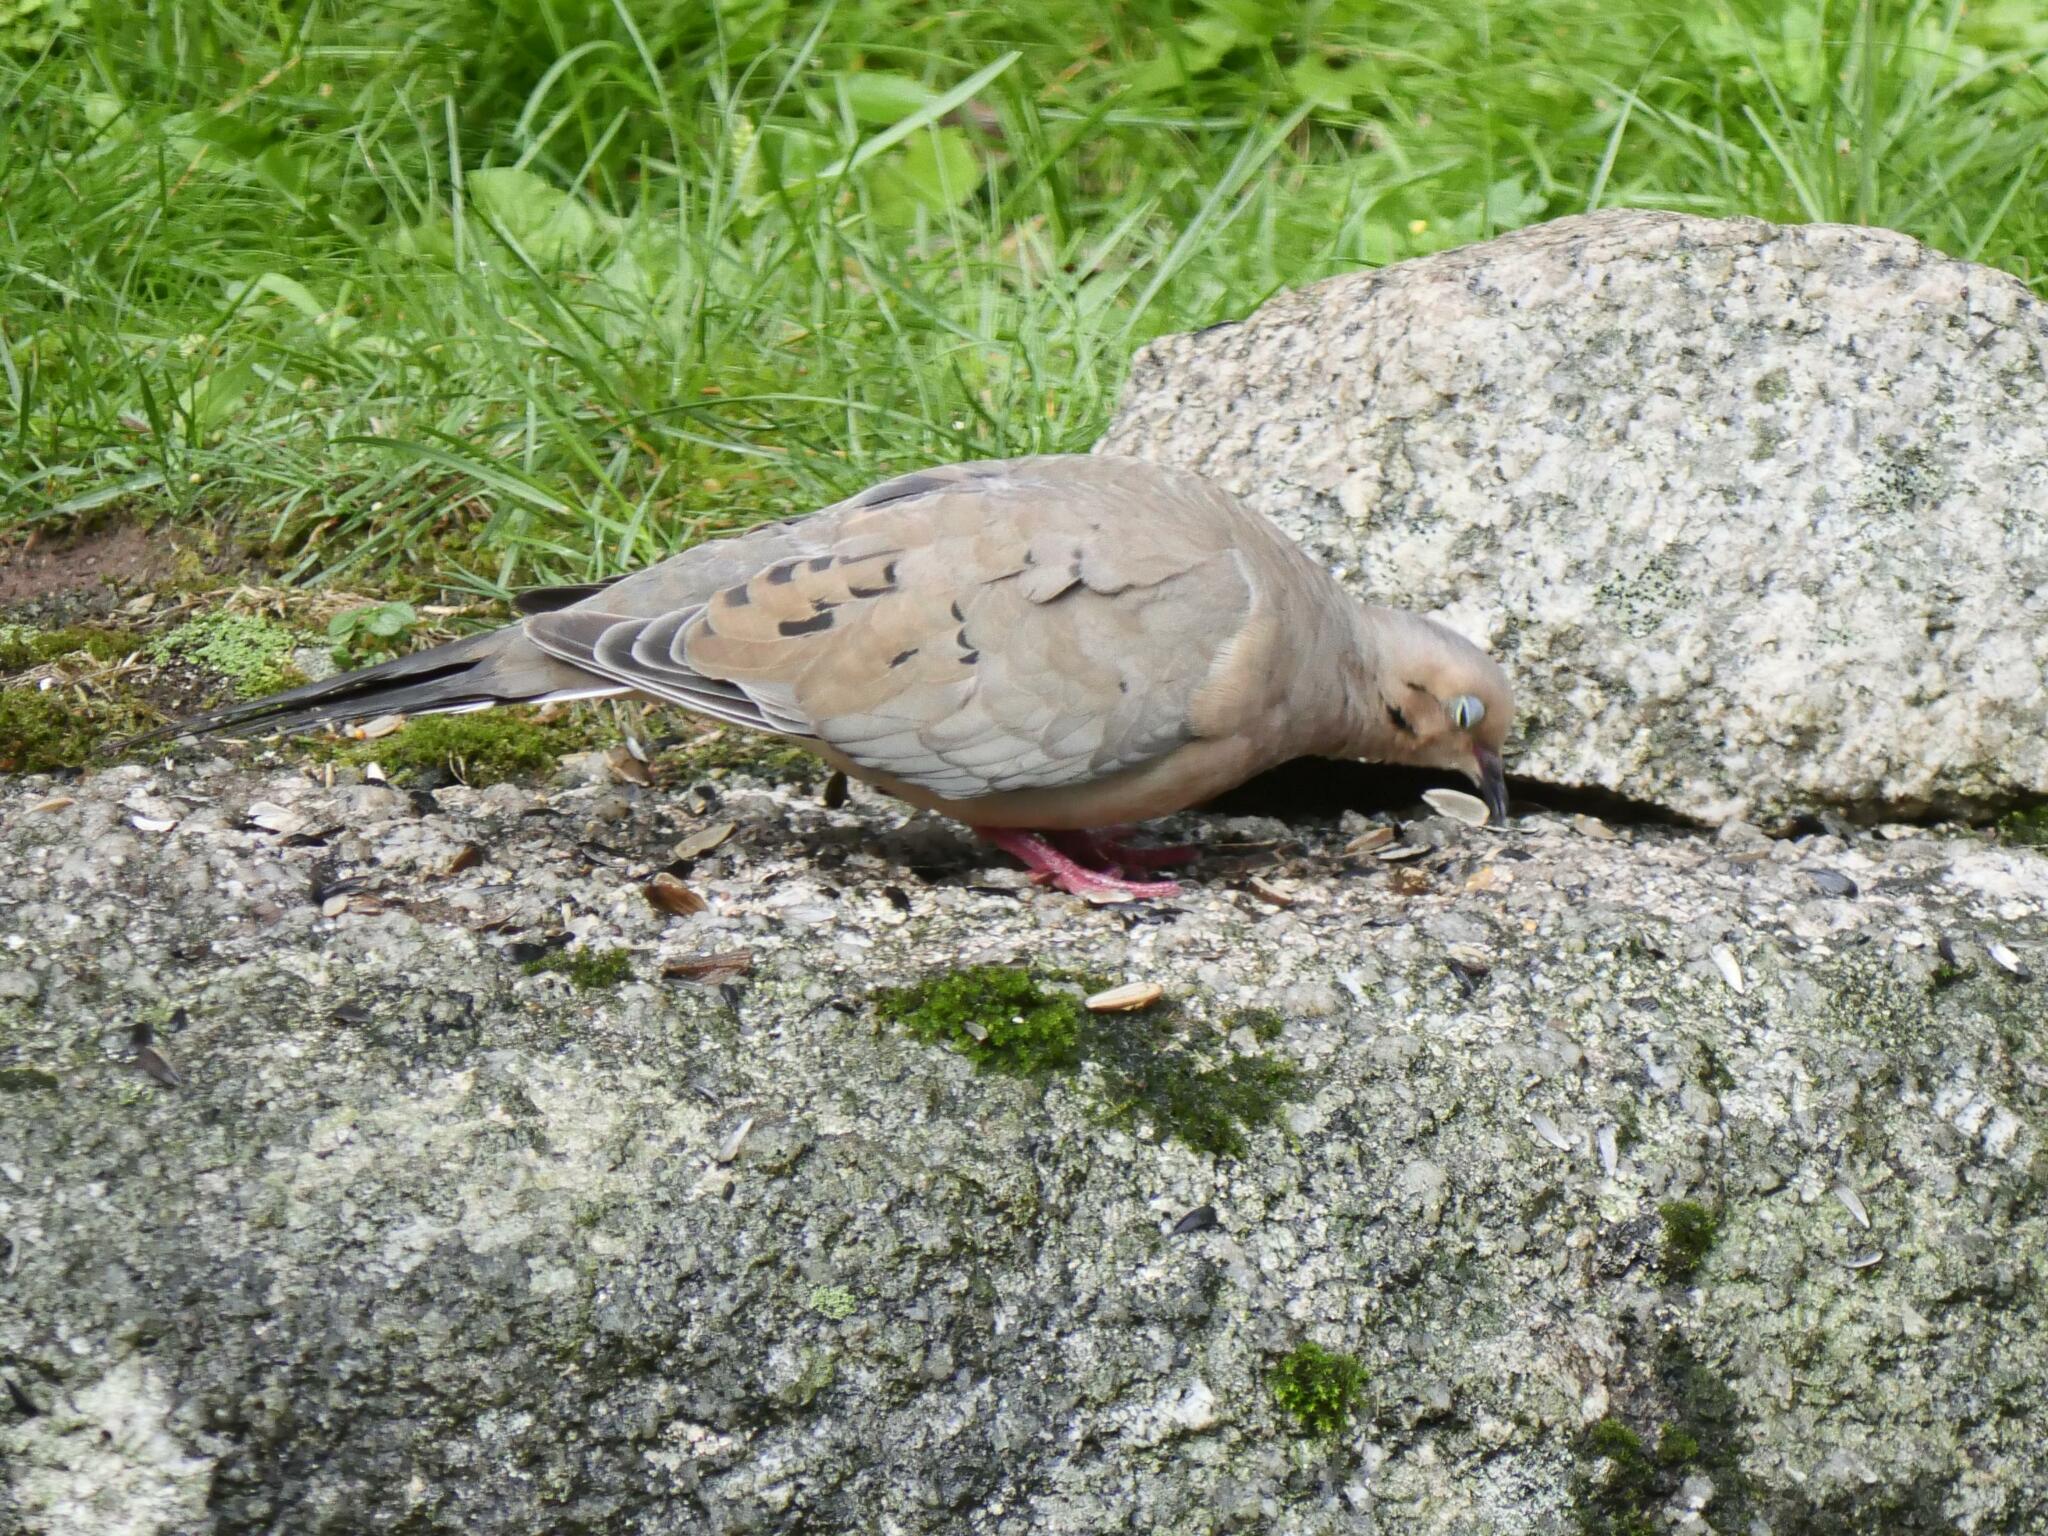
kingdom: Animalia
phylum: Chordata
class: Aves
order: Columbiformes
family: Columbidae
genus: Zenaida
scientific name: Zenaida macroura
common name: Mourning dove
